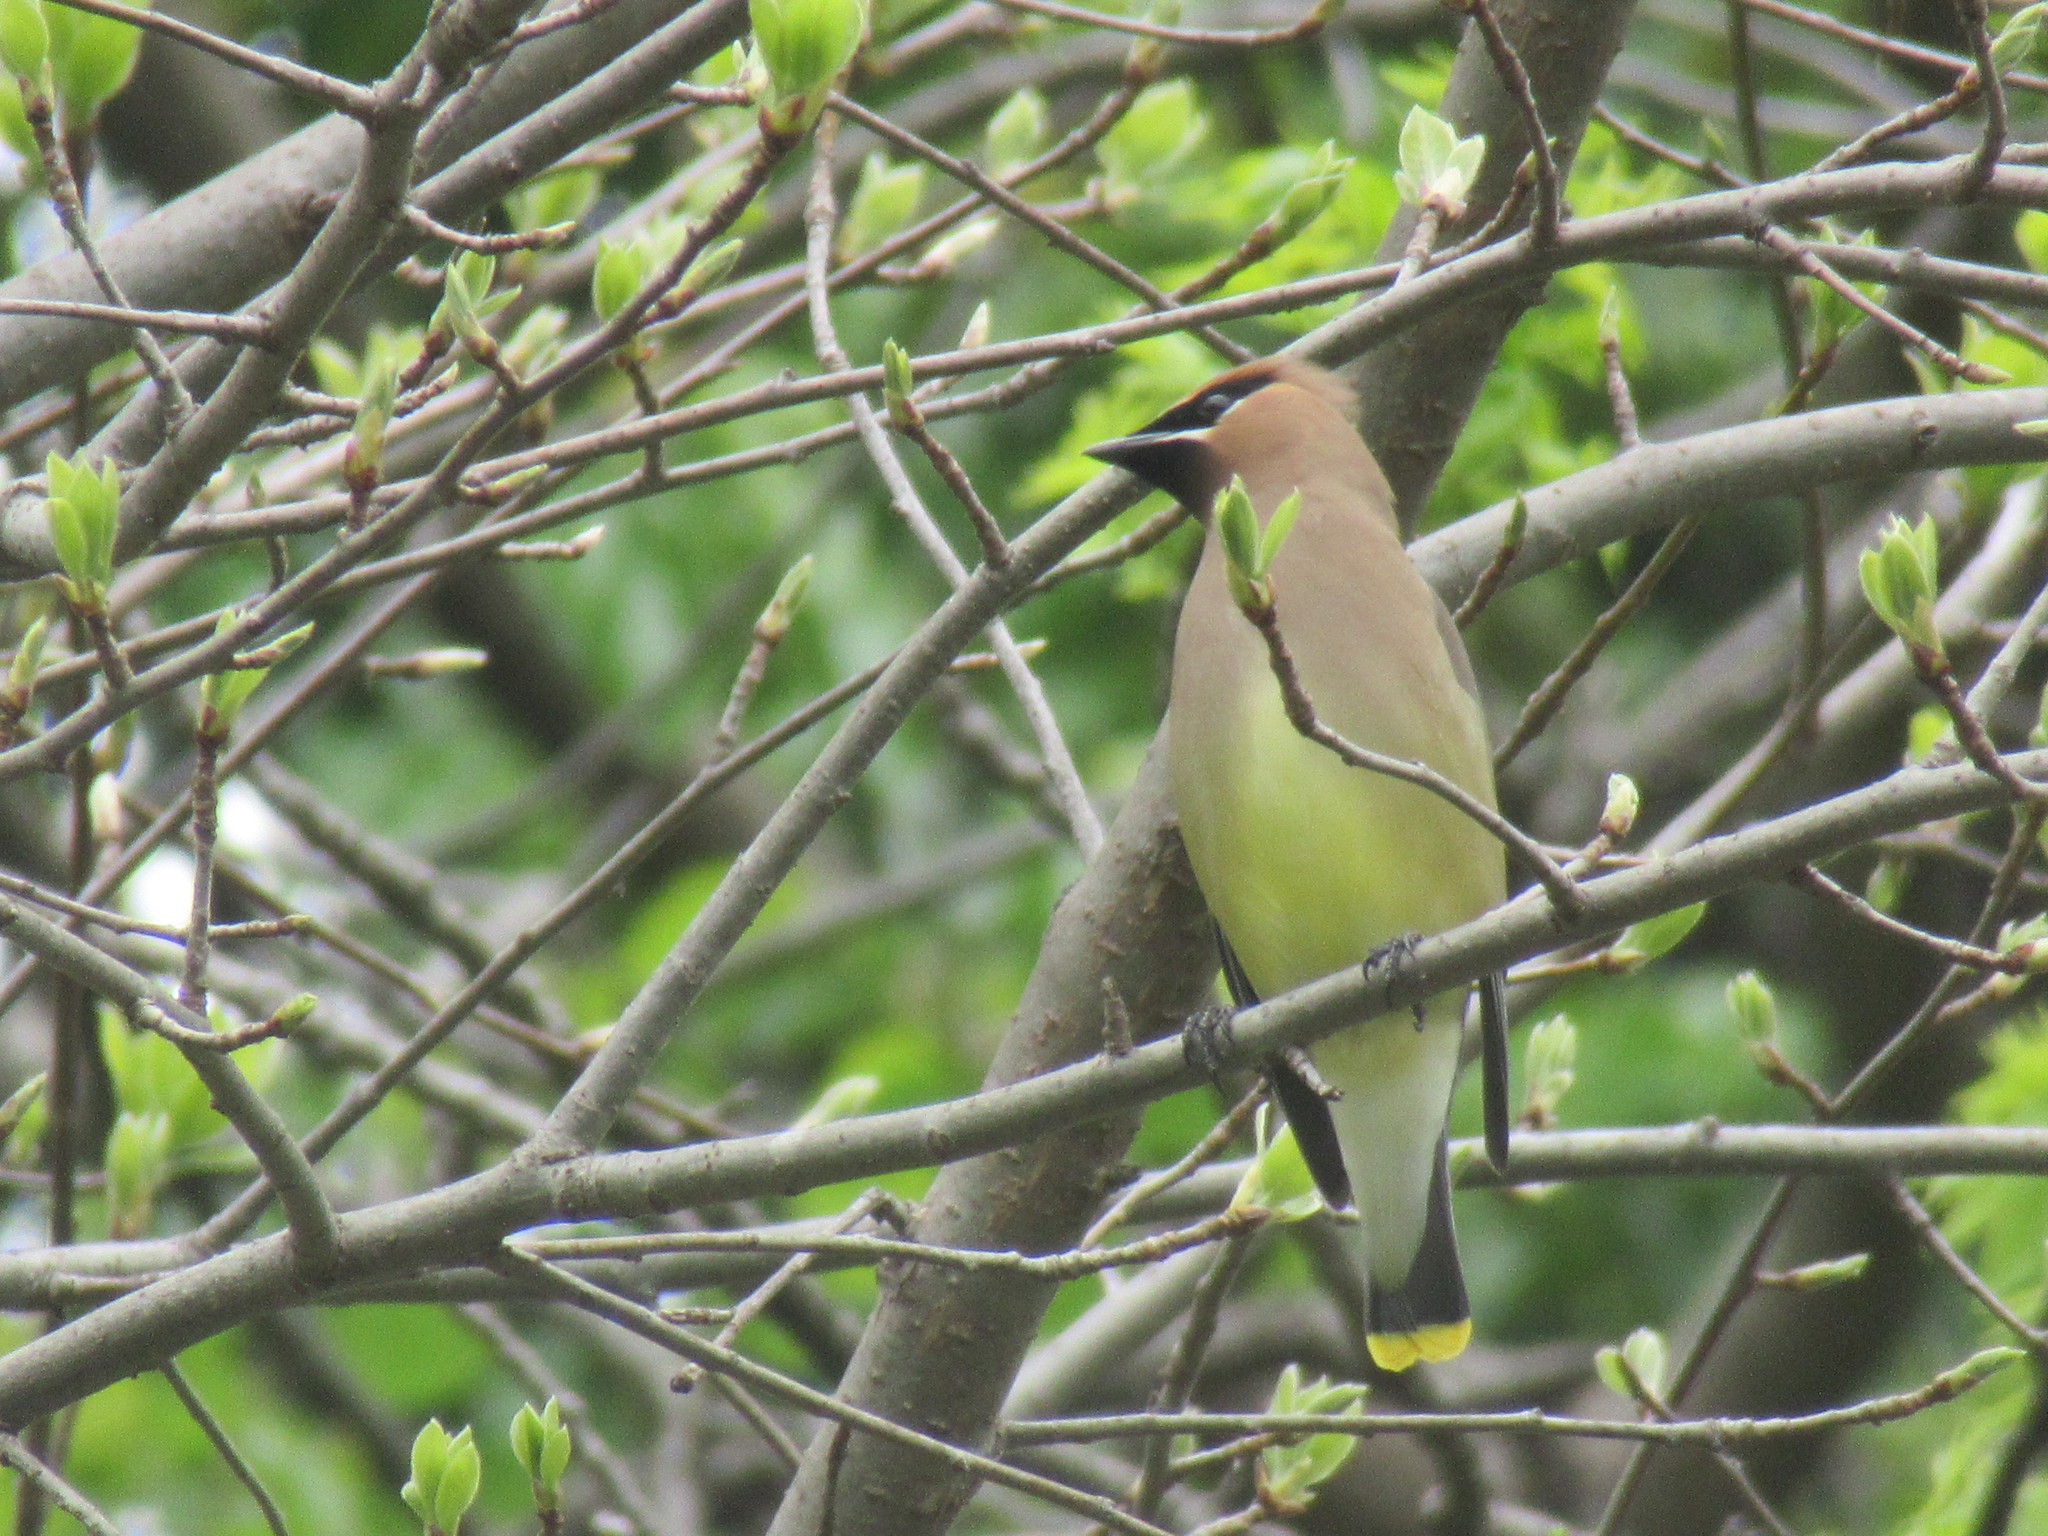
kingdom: Animalia
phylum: Chordata
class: Aves
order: Passeriformes
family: Bombycillidae
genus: Bombycilla
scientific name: Bombycilla cedrorum
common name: Cedar waxwing
